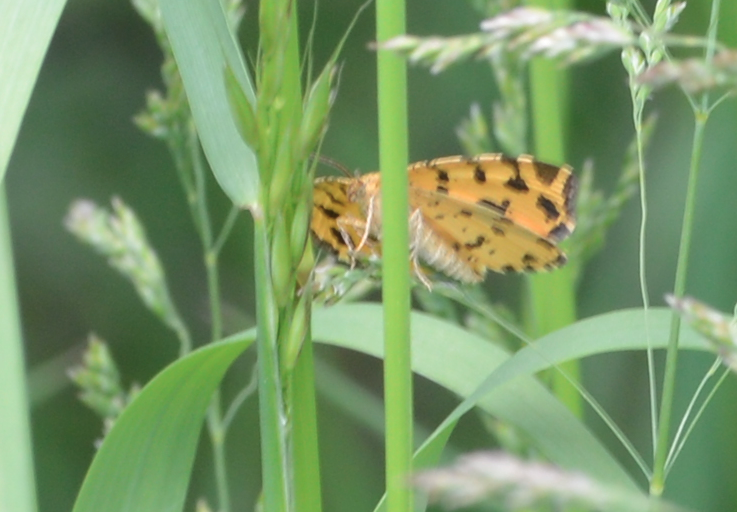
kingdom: Animalia
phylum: Arthropoda
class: Insecta
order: Lepidoptera
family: Geometridae
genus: Pseudopanthera
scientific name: Pseudopanthera macularia
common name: Speckled yellow
